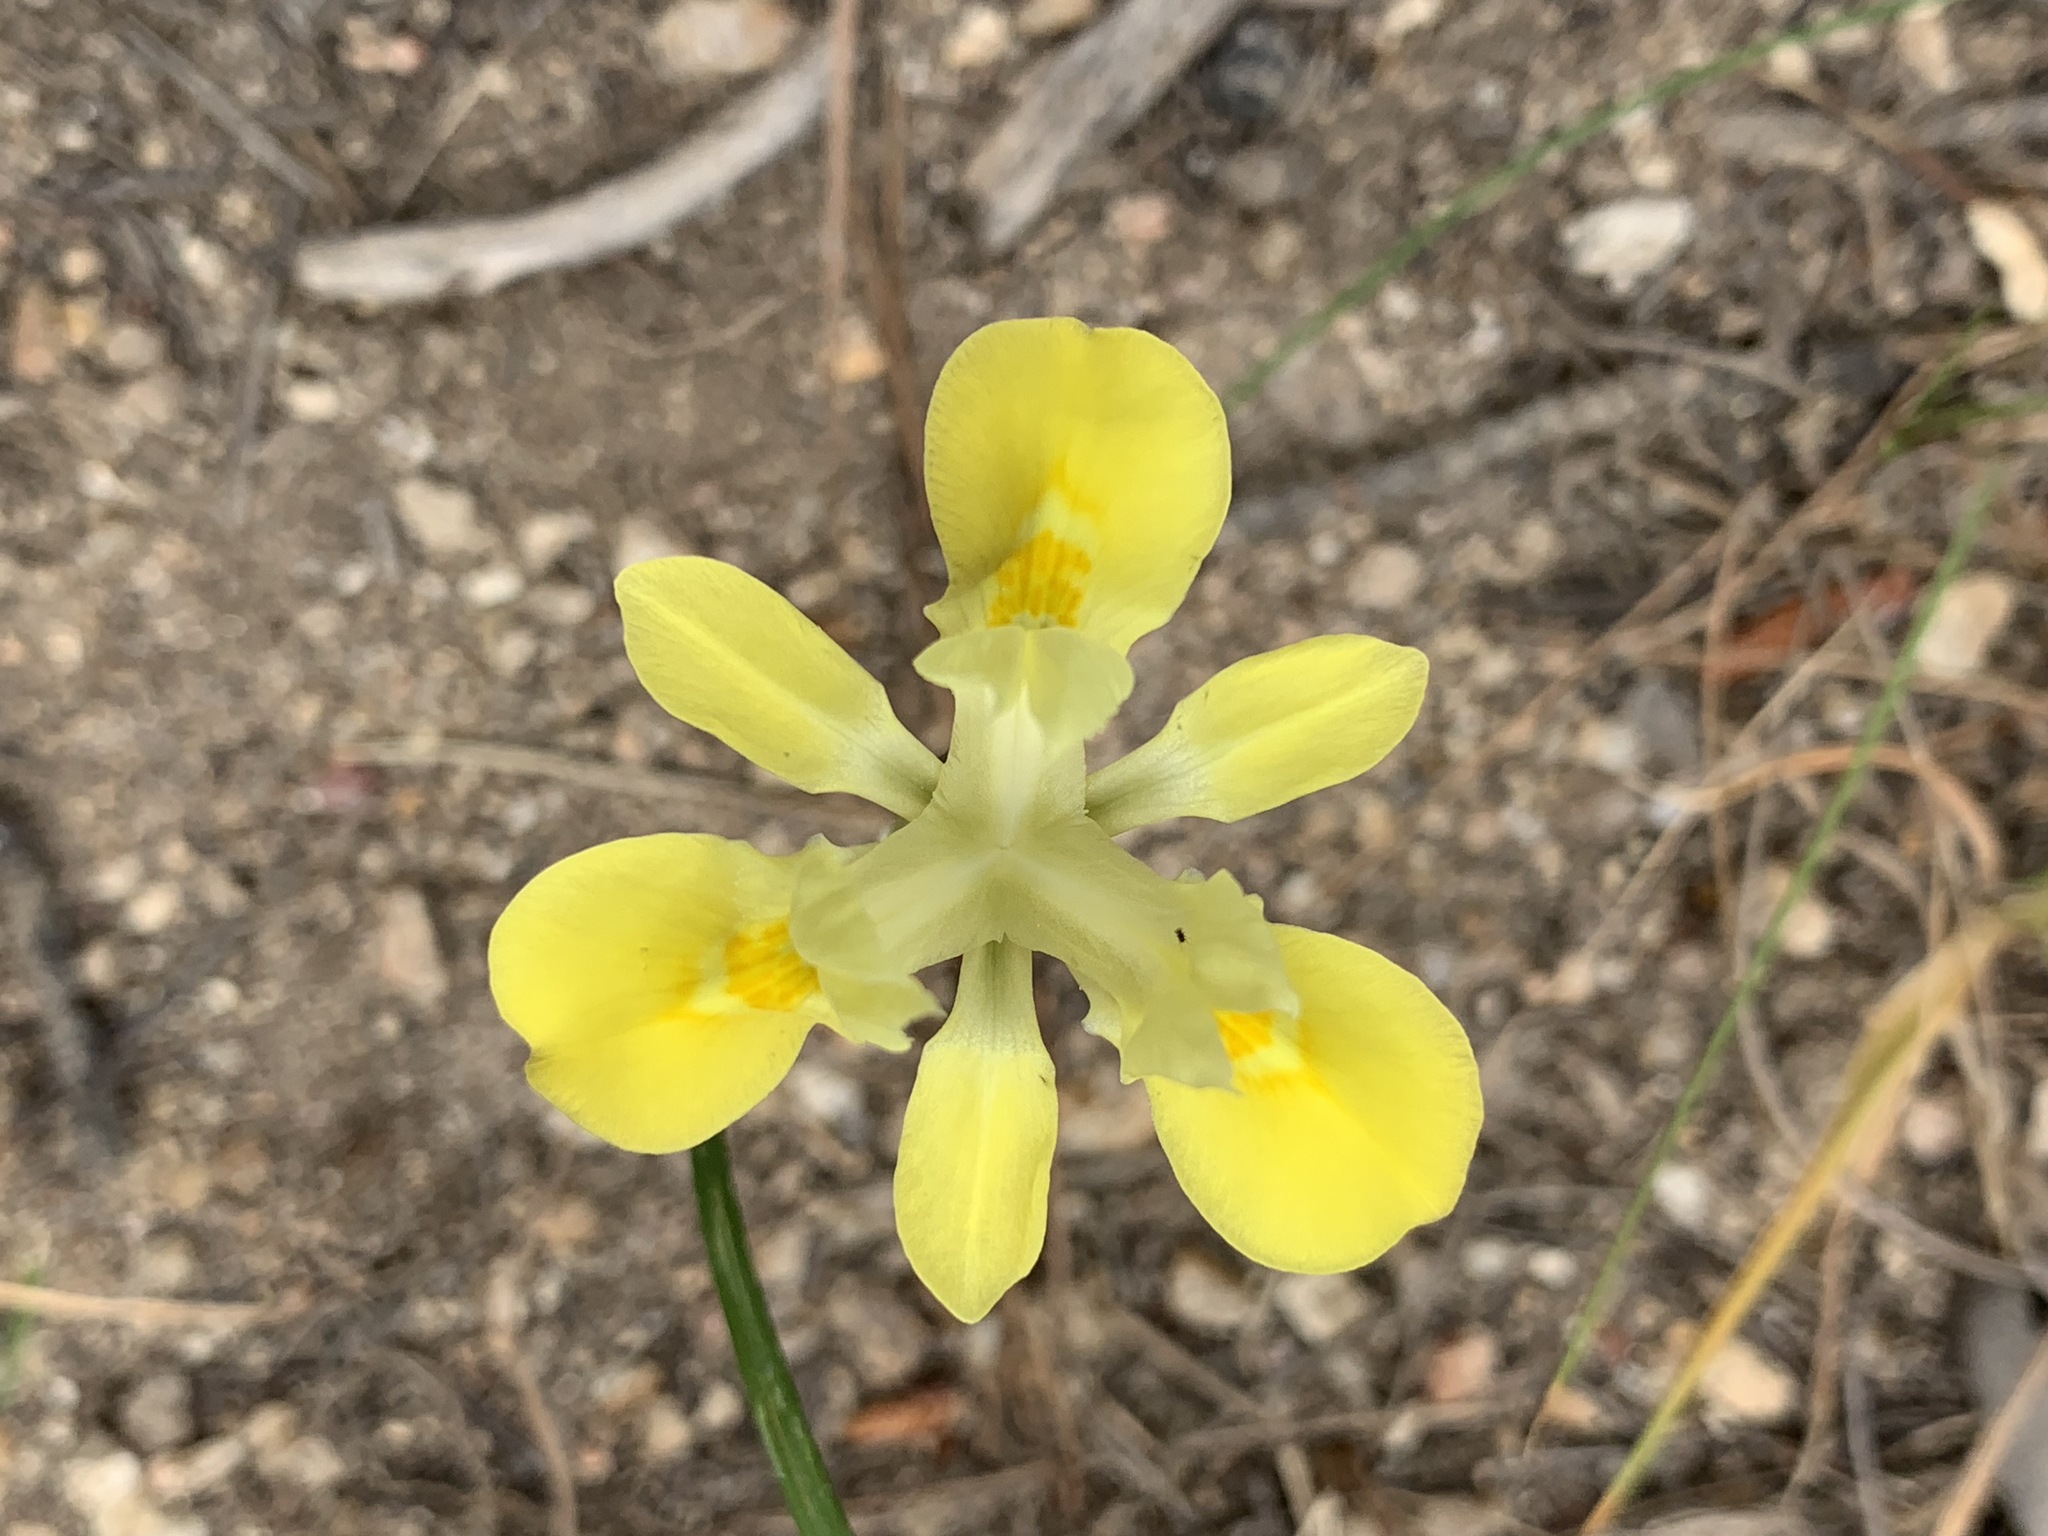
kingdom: Plantae
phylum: Tracheophyta
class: Liliopsida
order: Asparagales
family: Iridaceae
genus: Moraea
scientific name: Moraea fugax
